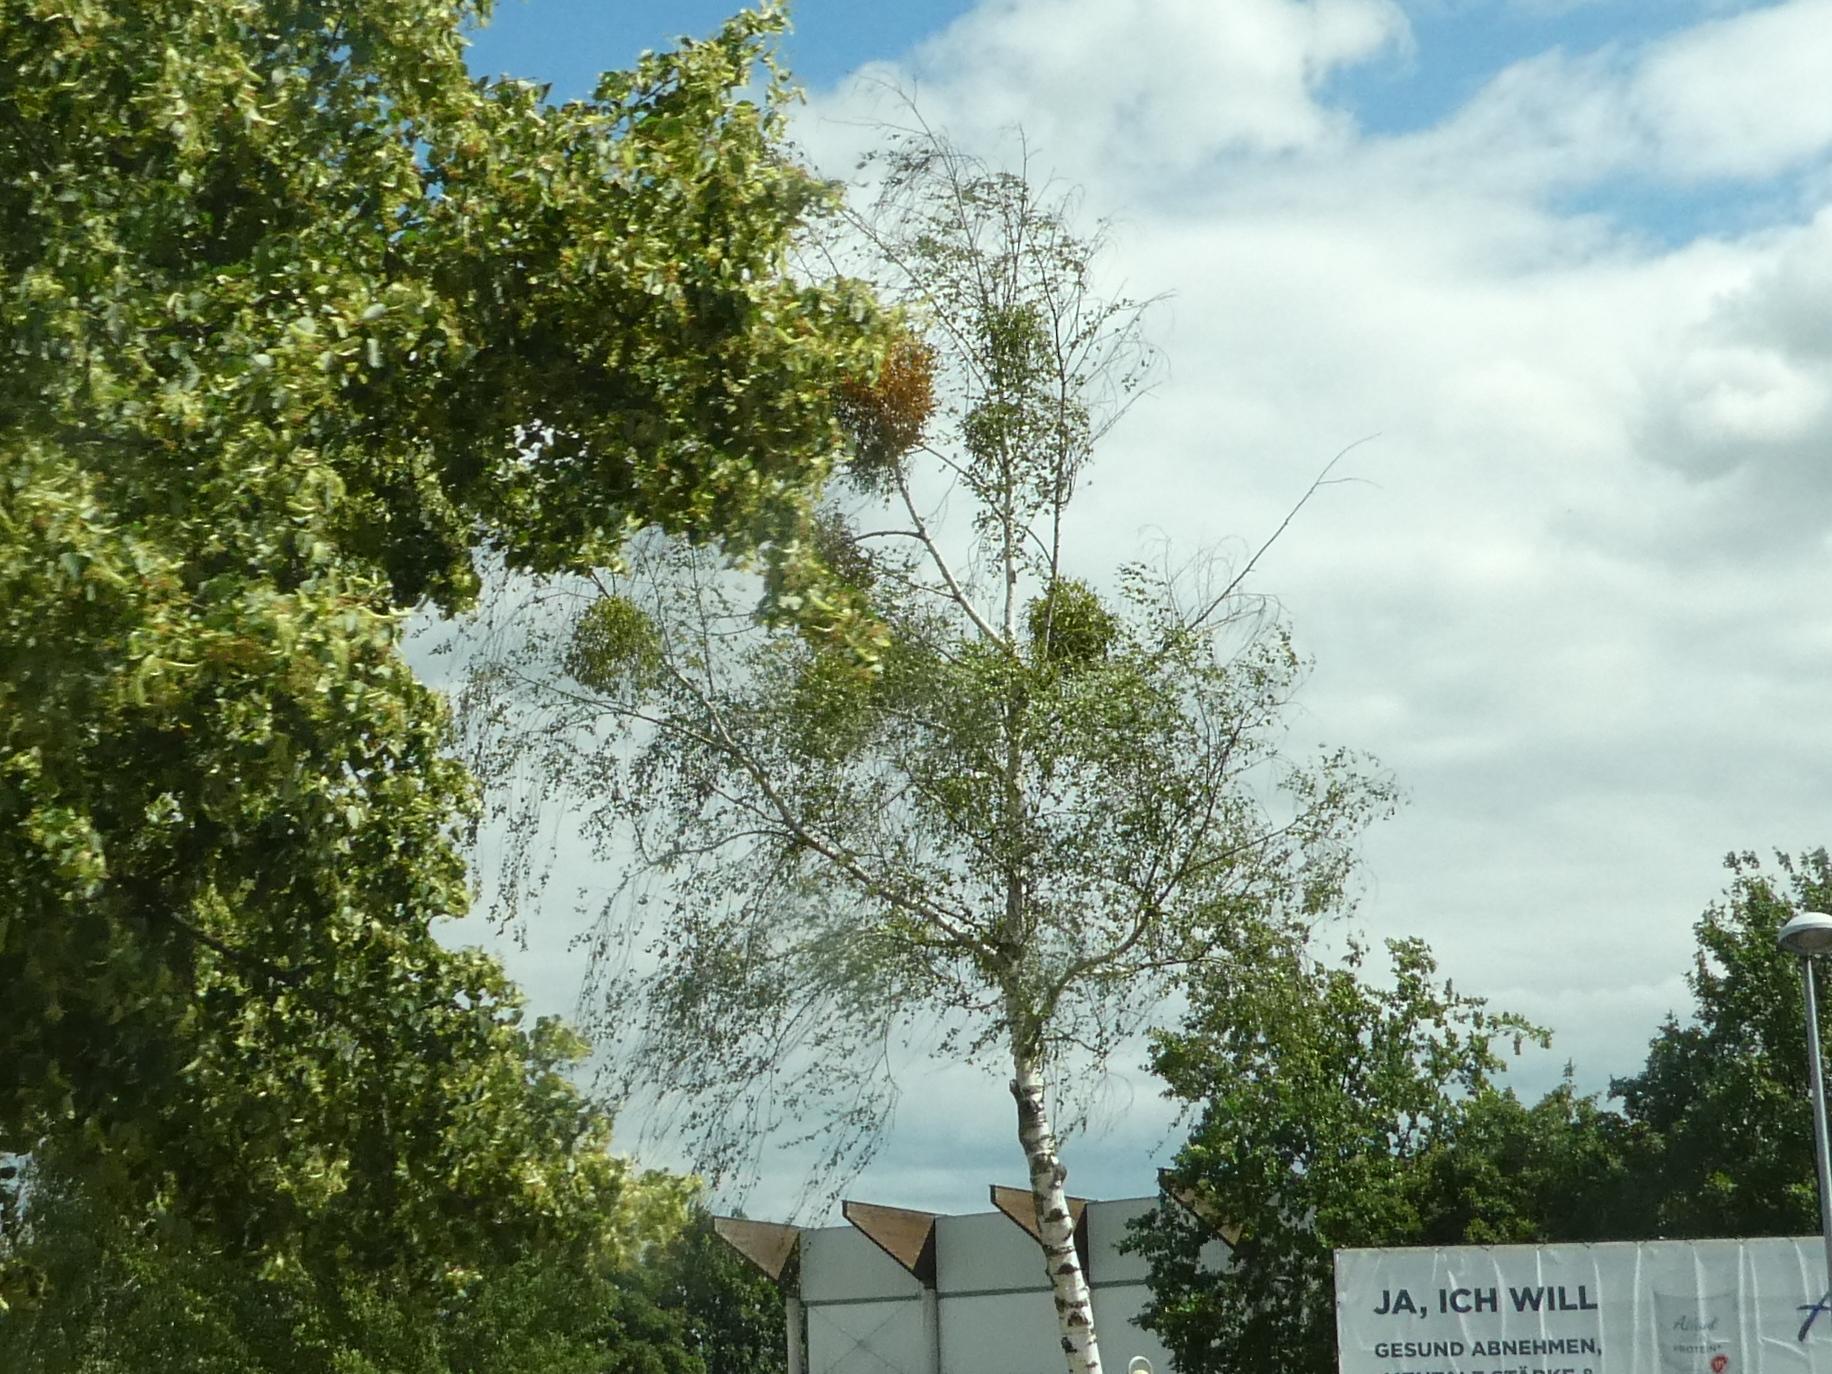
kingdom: Plantae
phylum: Tracheophyta
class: Magnoliopsida
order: Santalales
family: Viscaceae
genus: Viscum
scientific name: Viscum album
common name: Mistletoe
